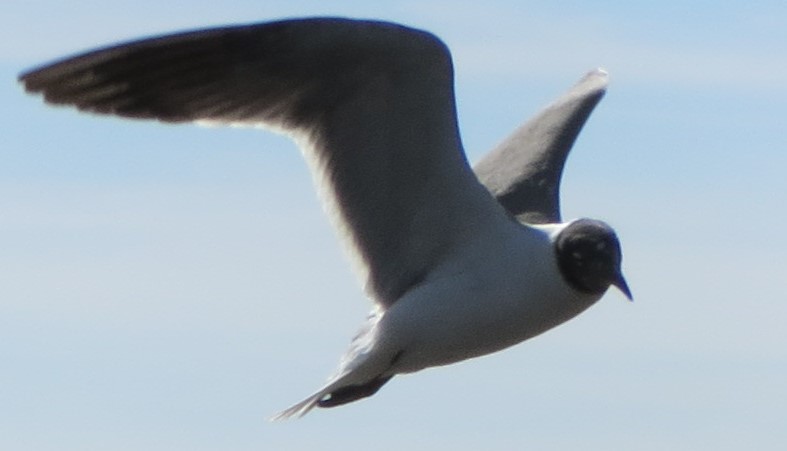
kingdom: Animalia
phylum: Chordata
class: Aves
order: Charadriiformes
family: Laridae
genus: Leucophaeus
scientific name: Leucophaeus atricilla
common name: Laughing gull
